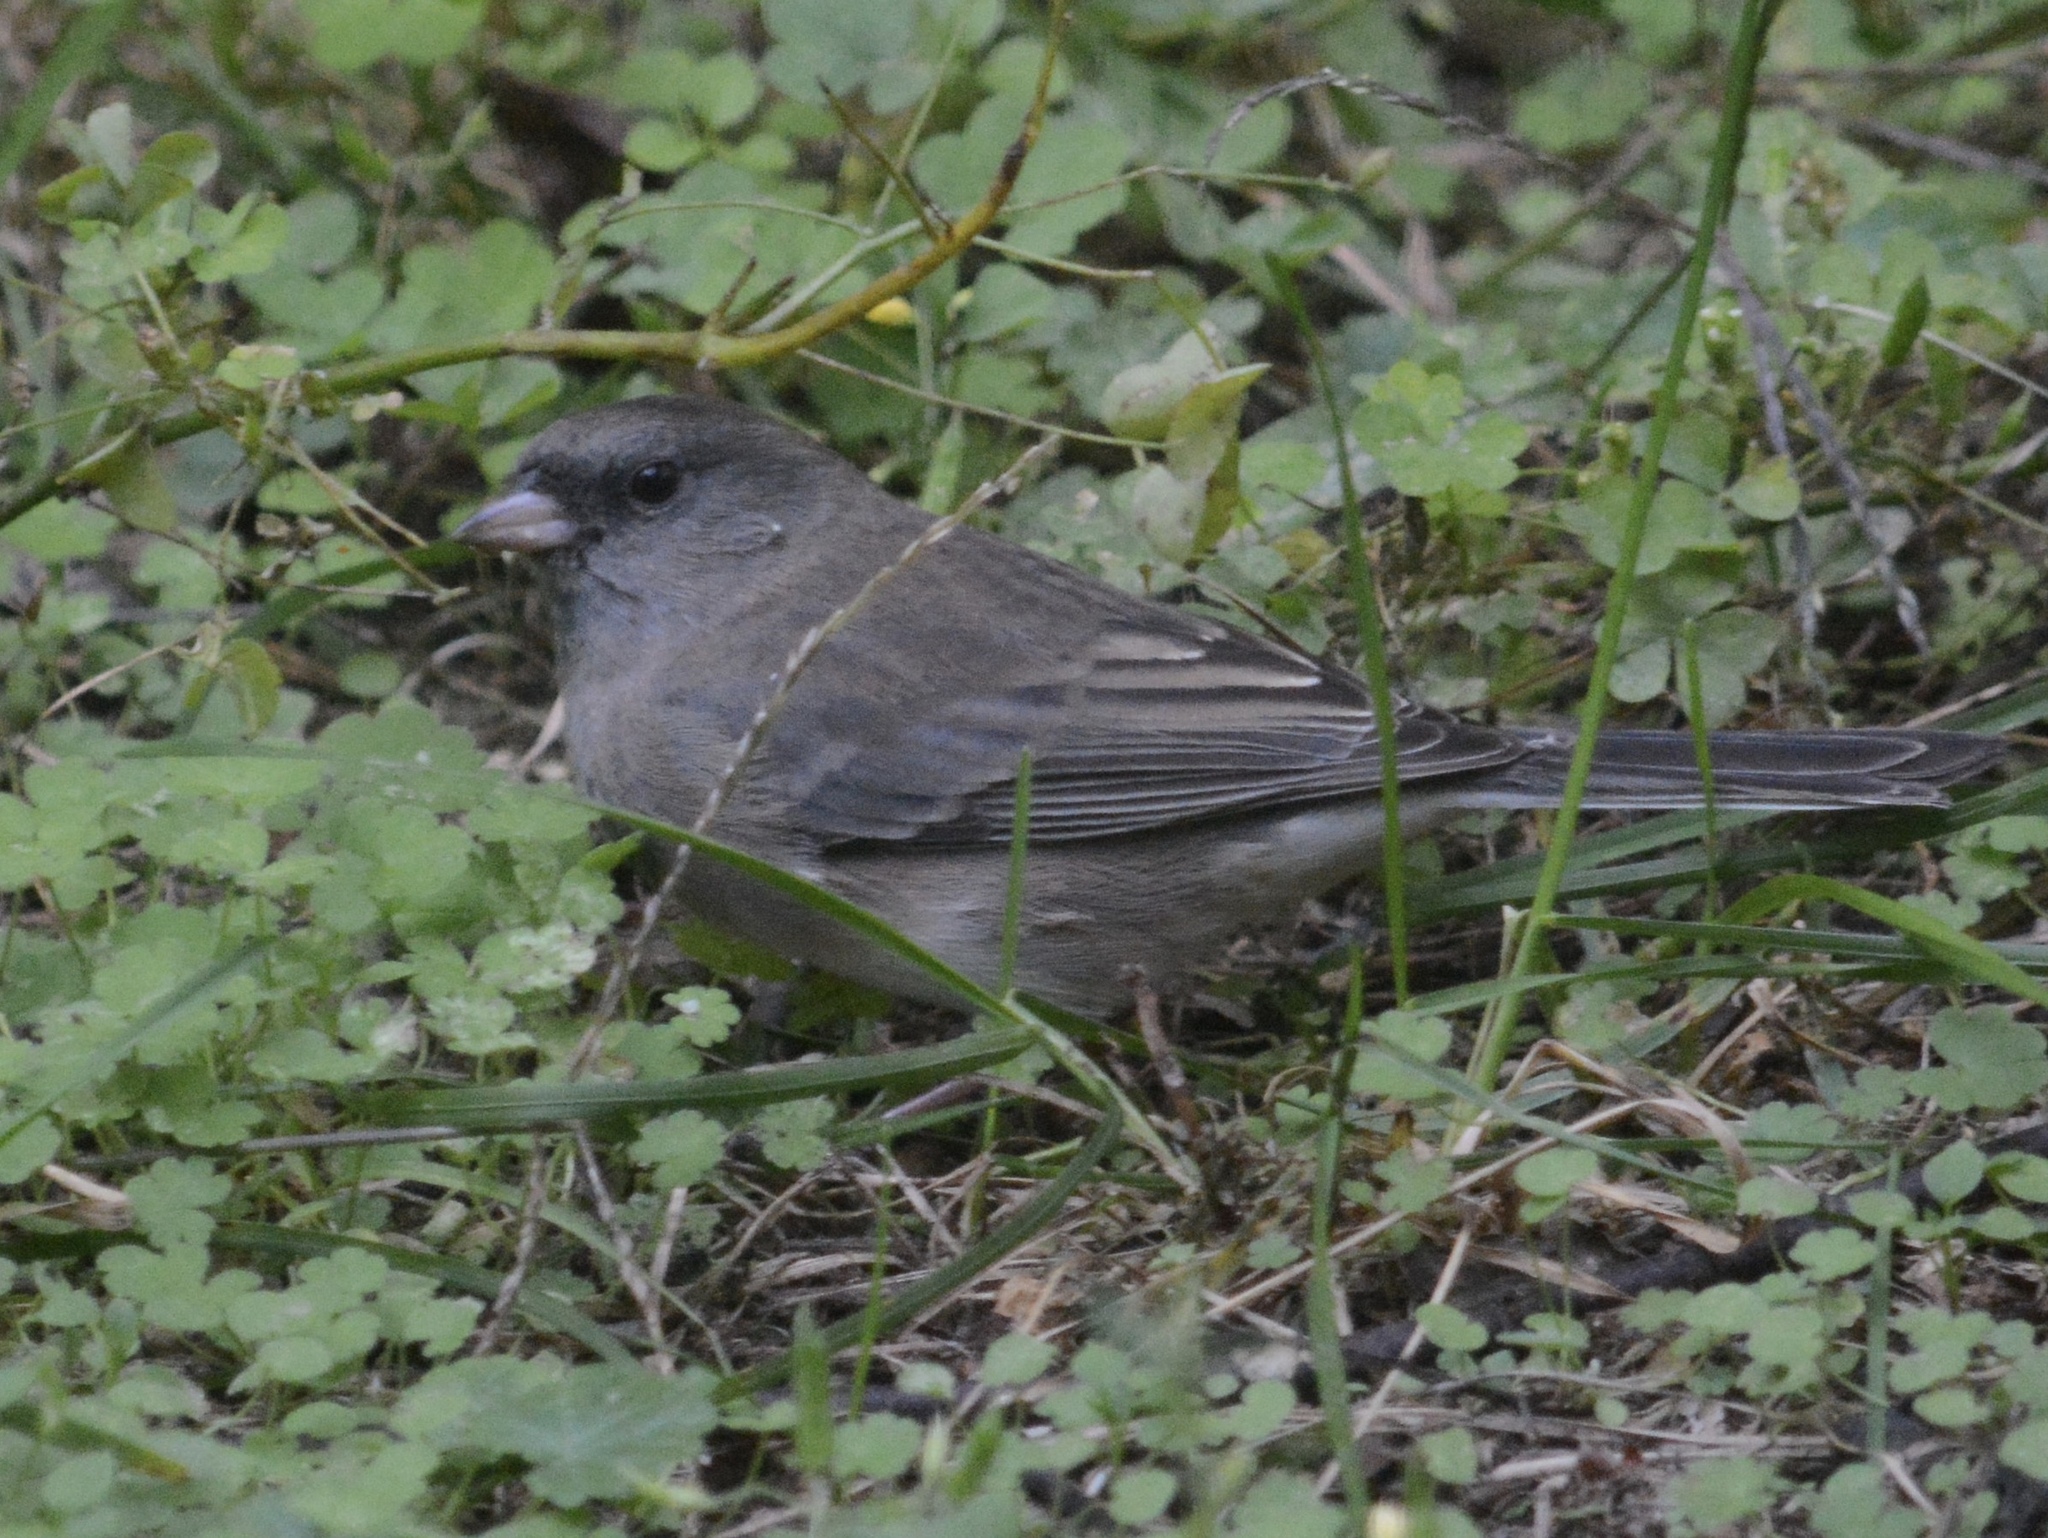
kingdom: Animalia
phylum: Chordata
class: Aves
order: Passeriformes
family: Passerellidae
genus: Junco
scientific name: Junco hyemalis
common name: Dark-eyed junco
